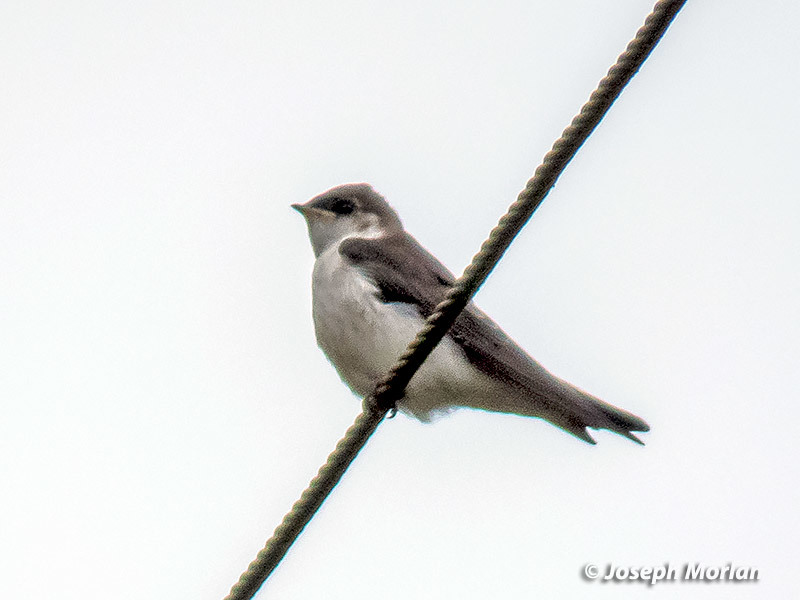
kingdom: Animalia
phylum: Chordata
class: Aves
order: Passeriformes
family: Hirundinidae
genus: Tachycineta
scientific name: Tachycineta thalassina
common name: Violet-green swallow
